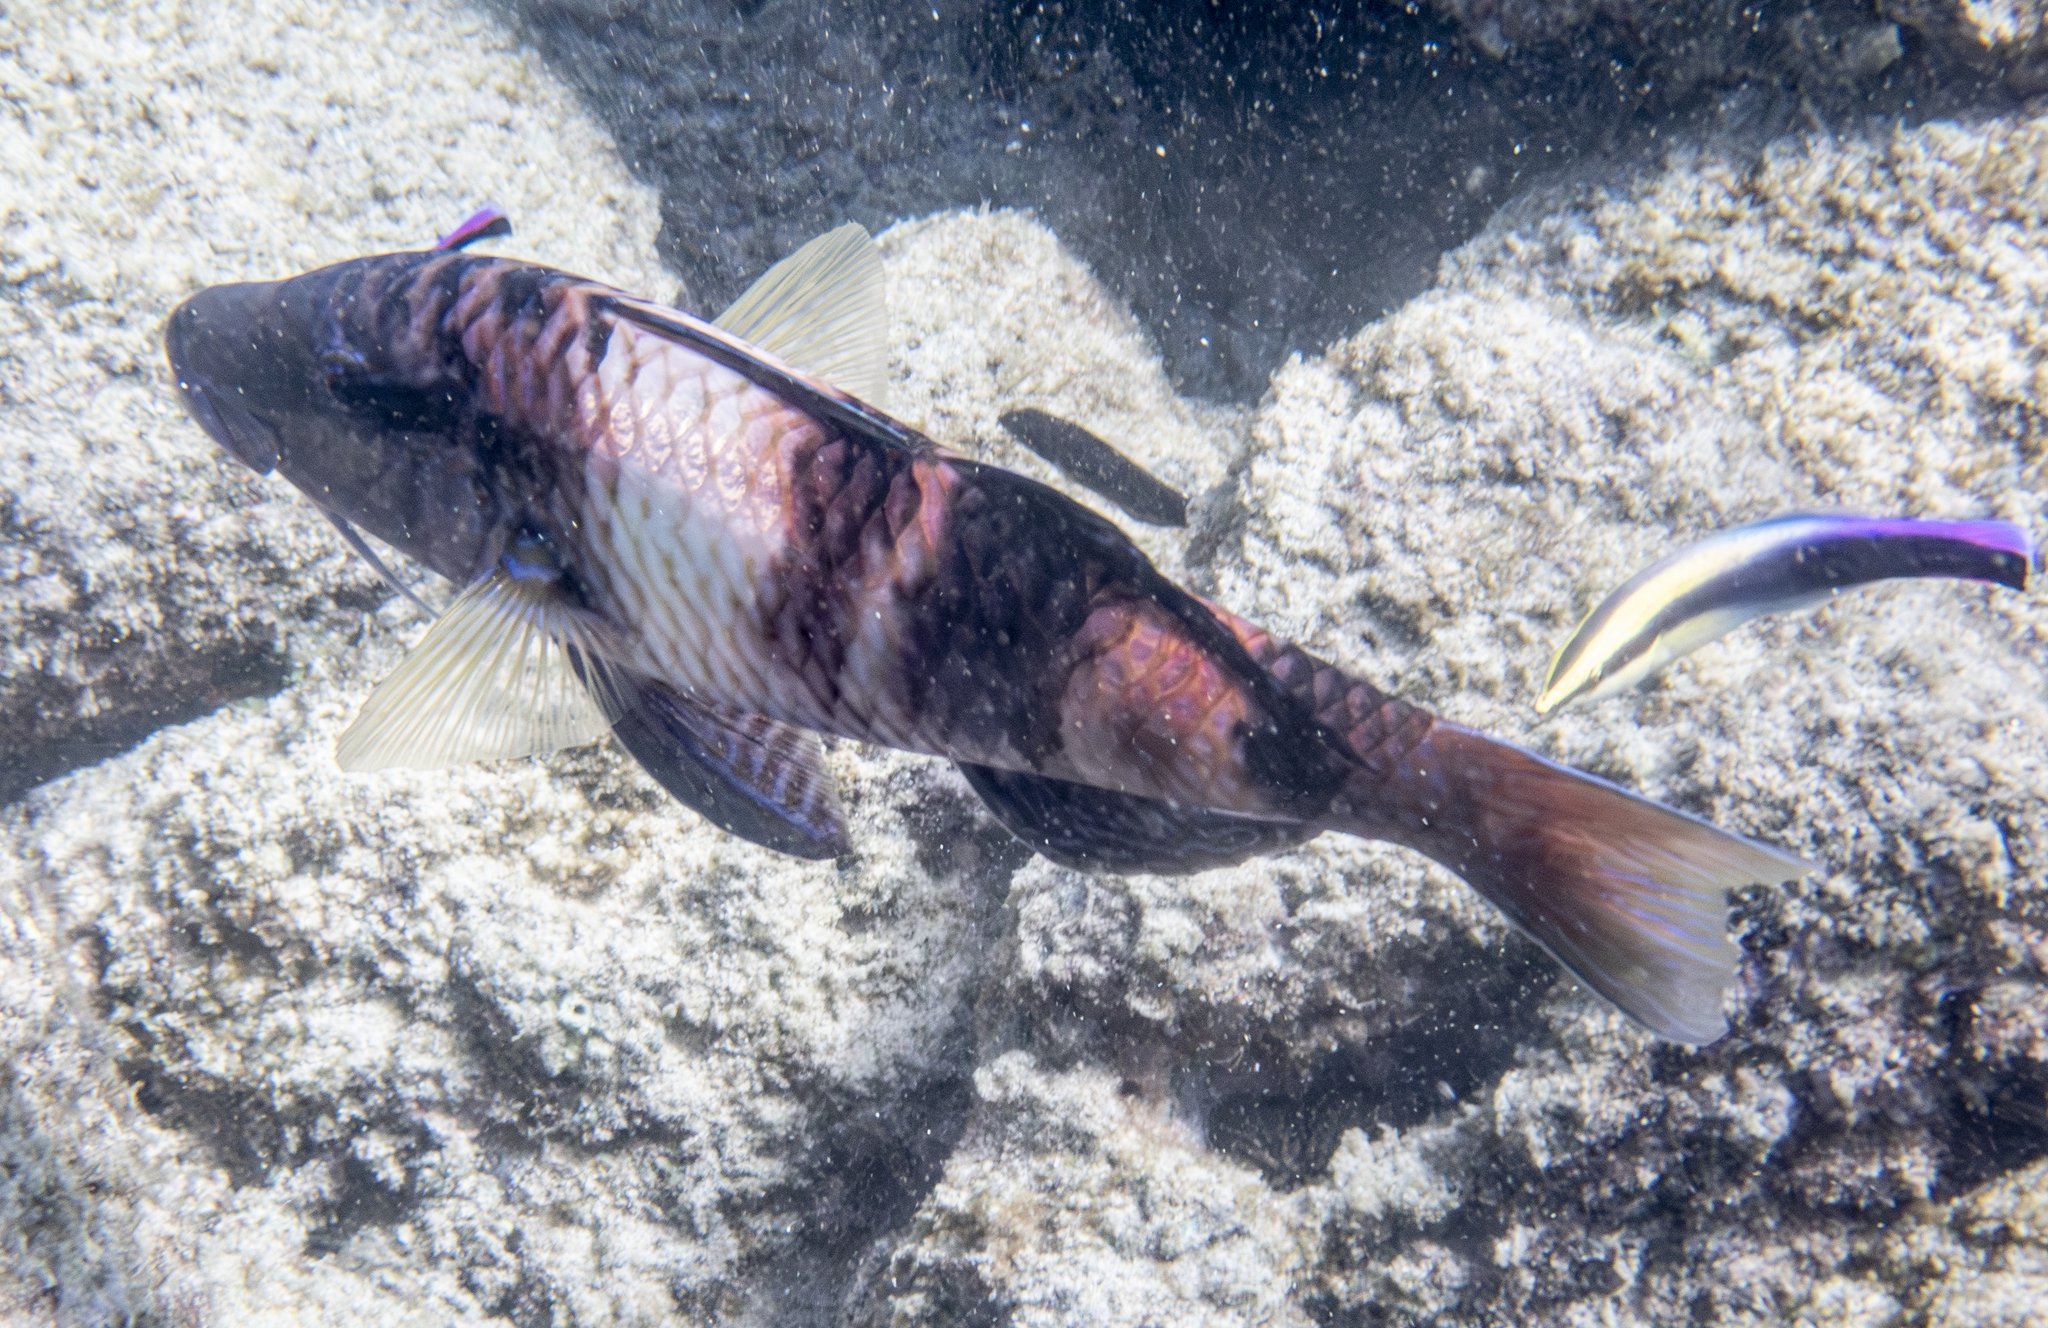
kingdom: Animalia
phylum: Chordata
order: Perciformes
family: Mullidae
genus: Parupeneus
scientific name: Parupeneus multifasciatus
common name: Manybar goatfish
